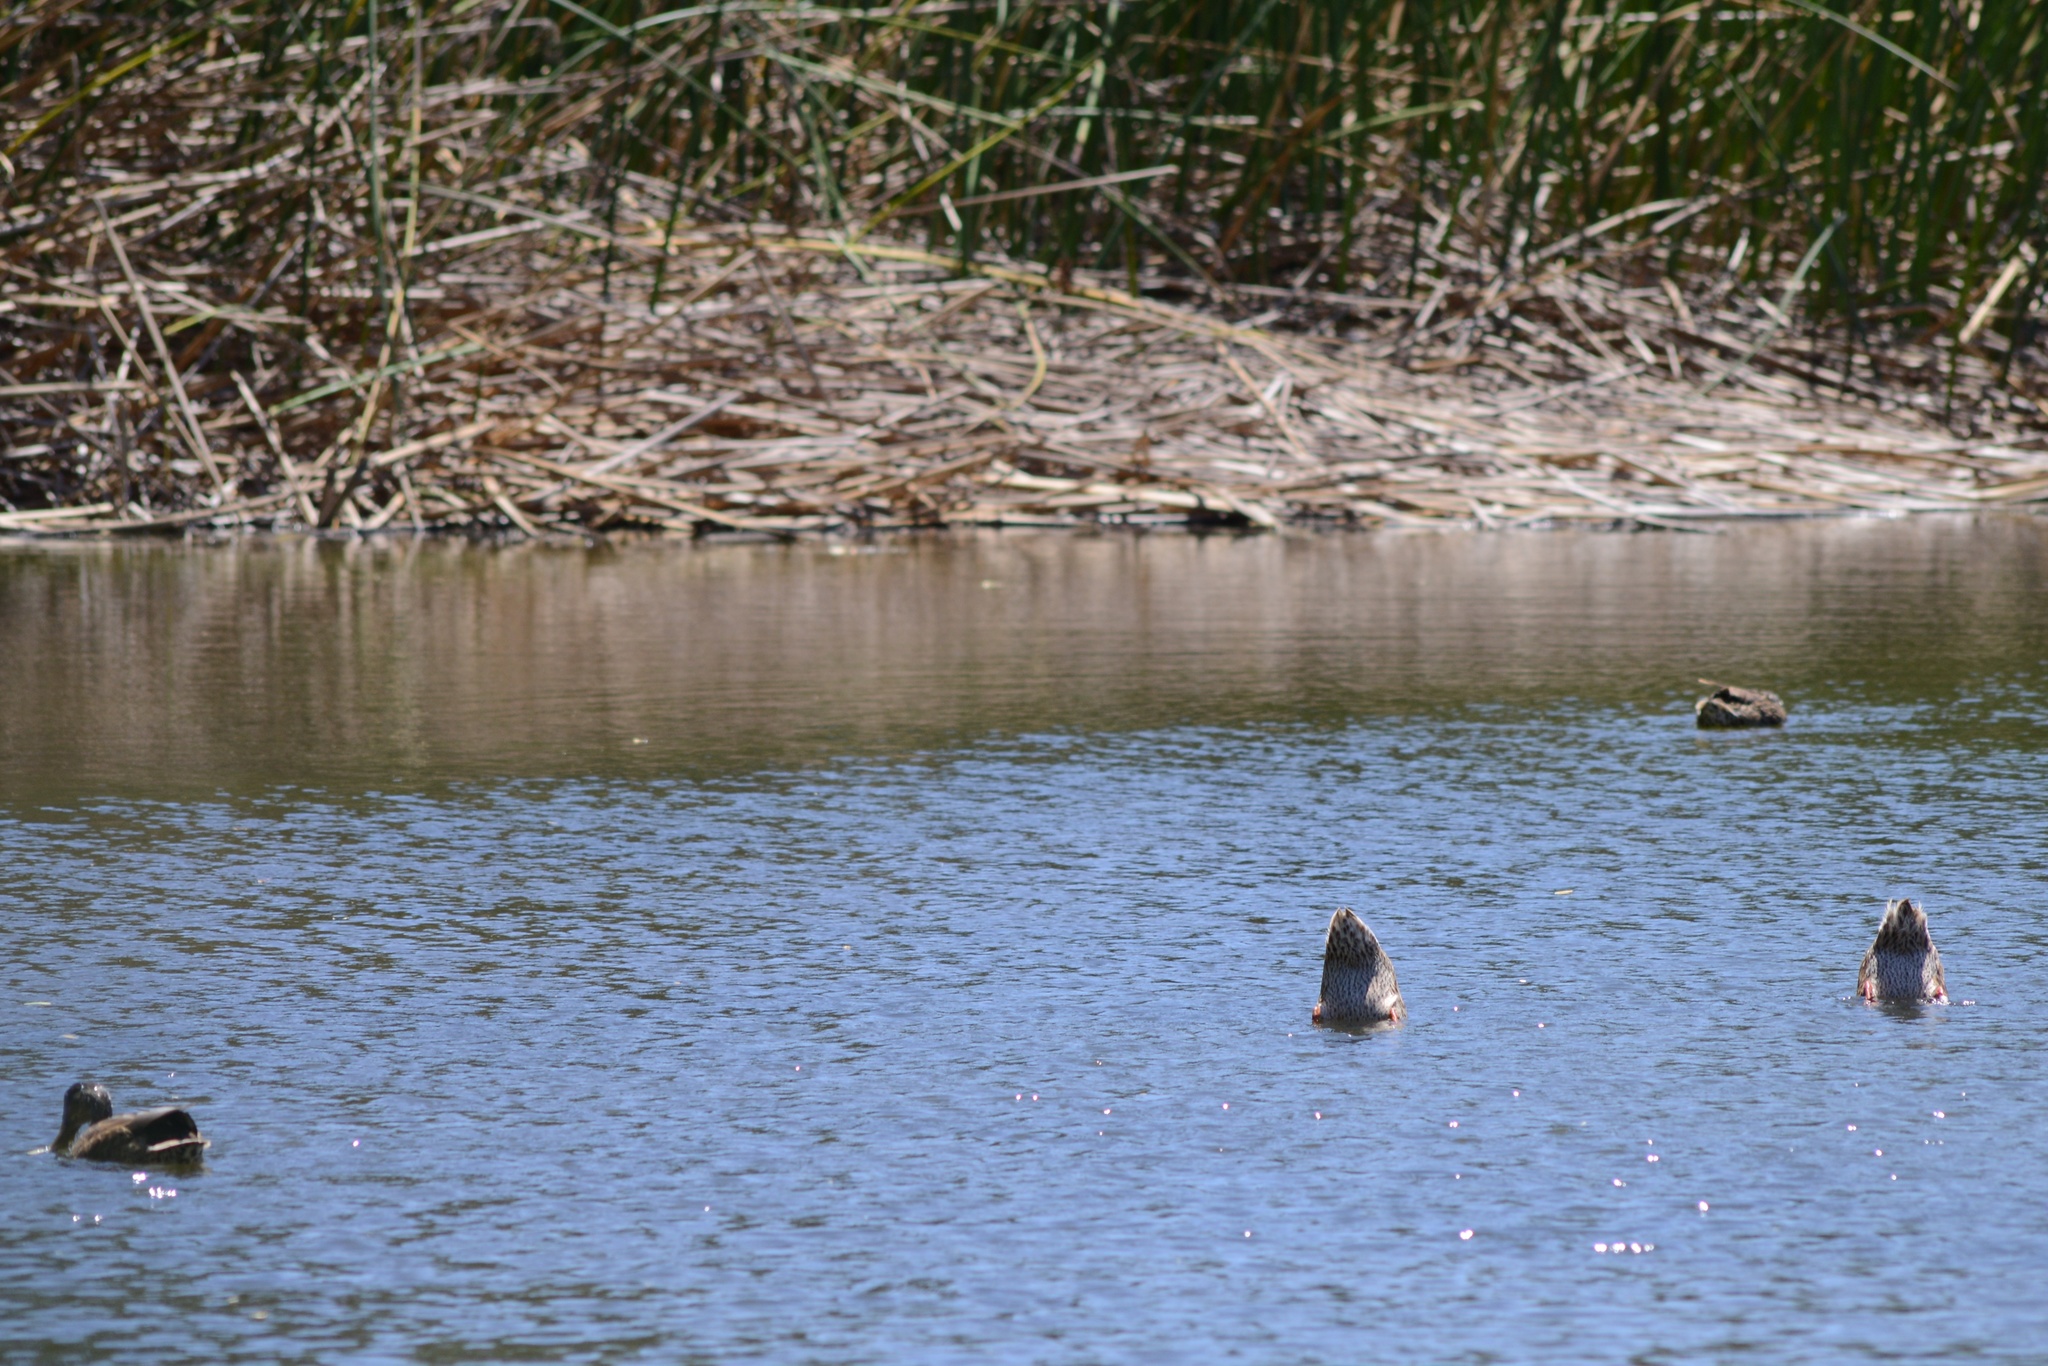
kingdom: Animalia
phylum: Chordata
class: Aves
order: Anseriformes
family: Anatidae
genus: Anas
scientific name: Anas platyrhynchos
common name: Mallard
